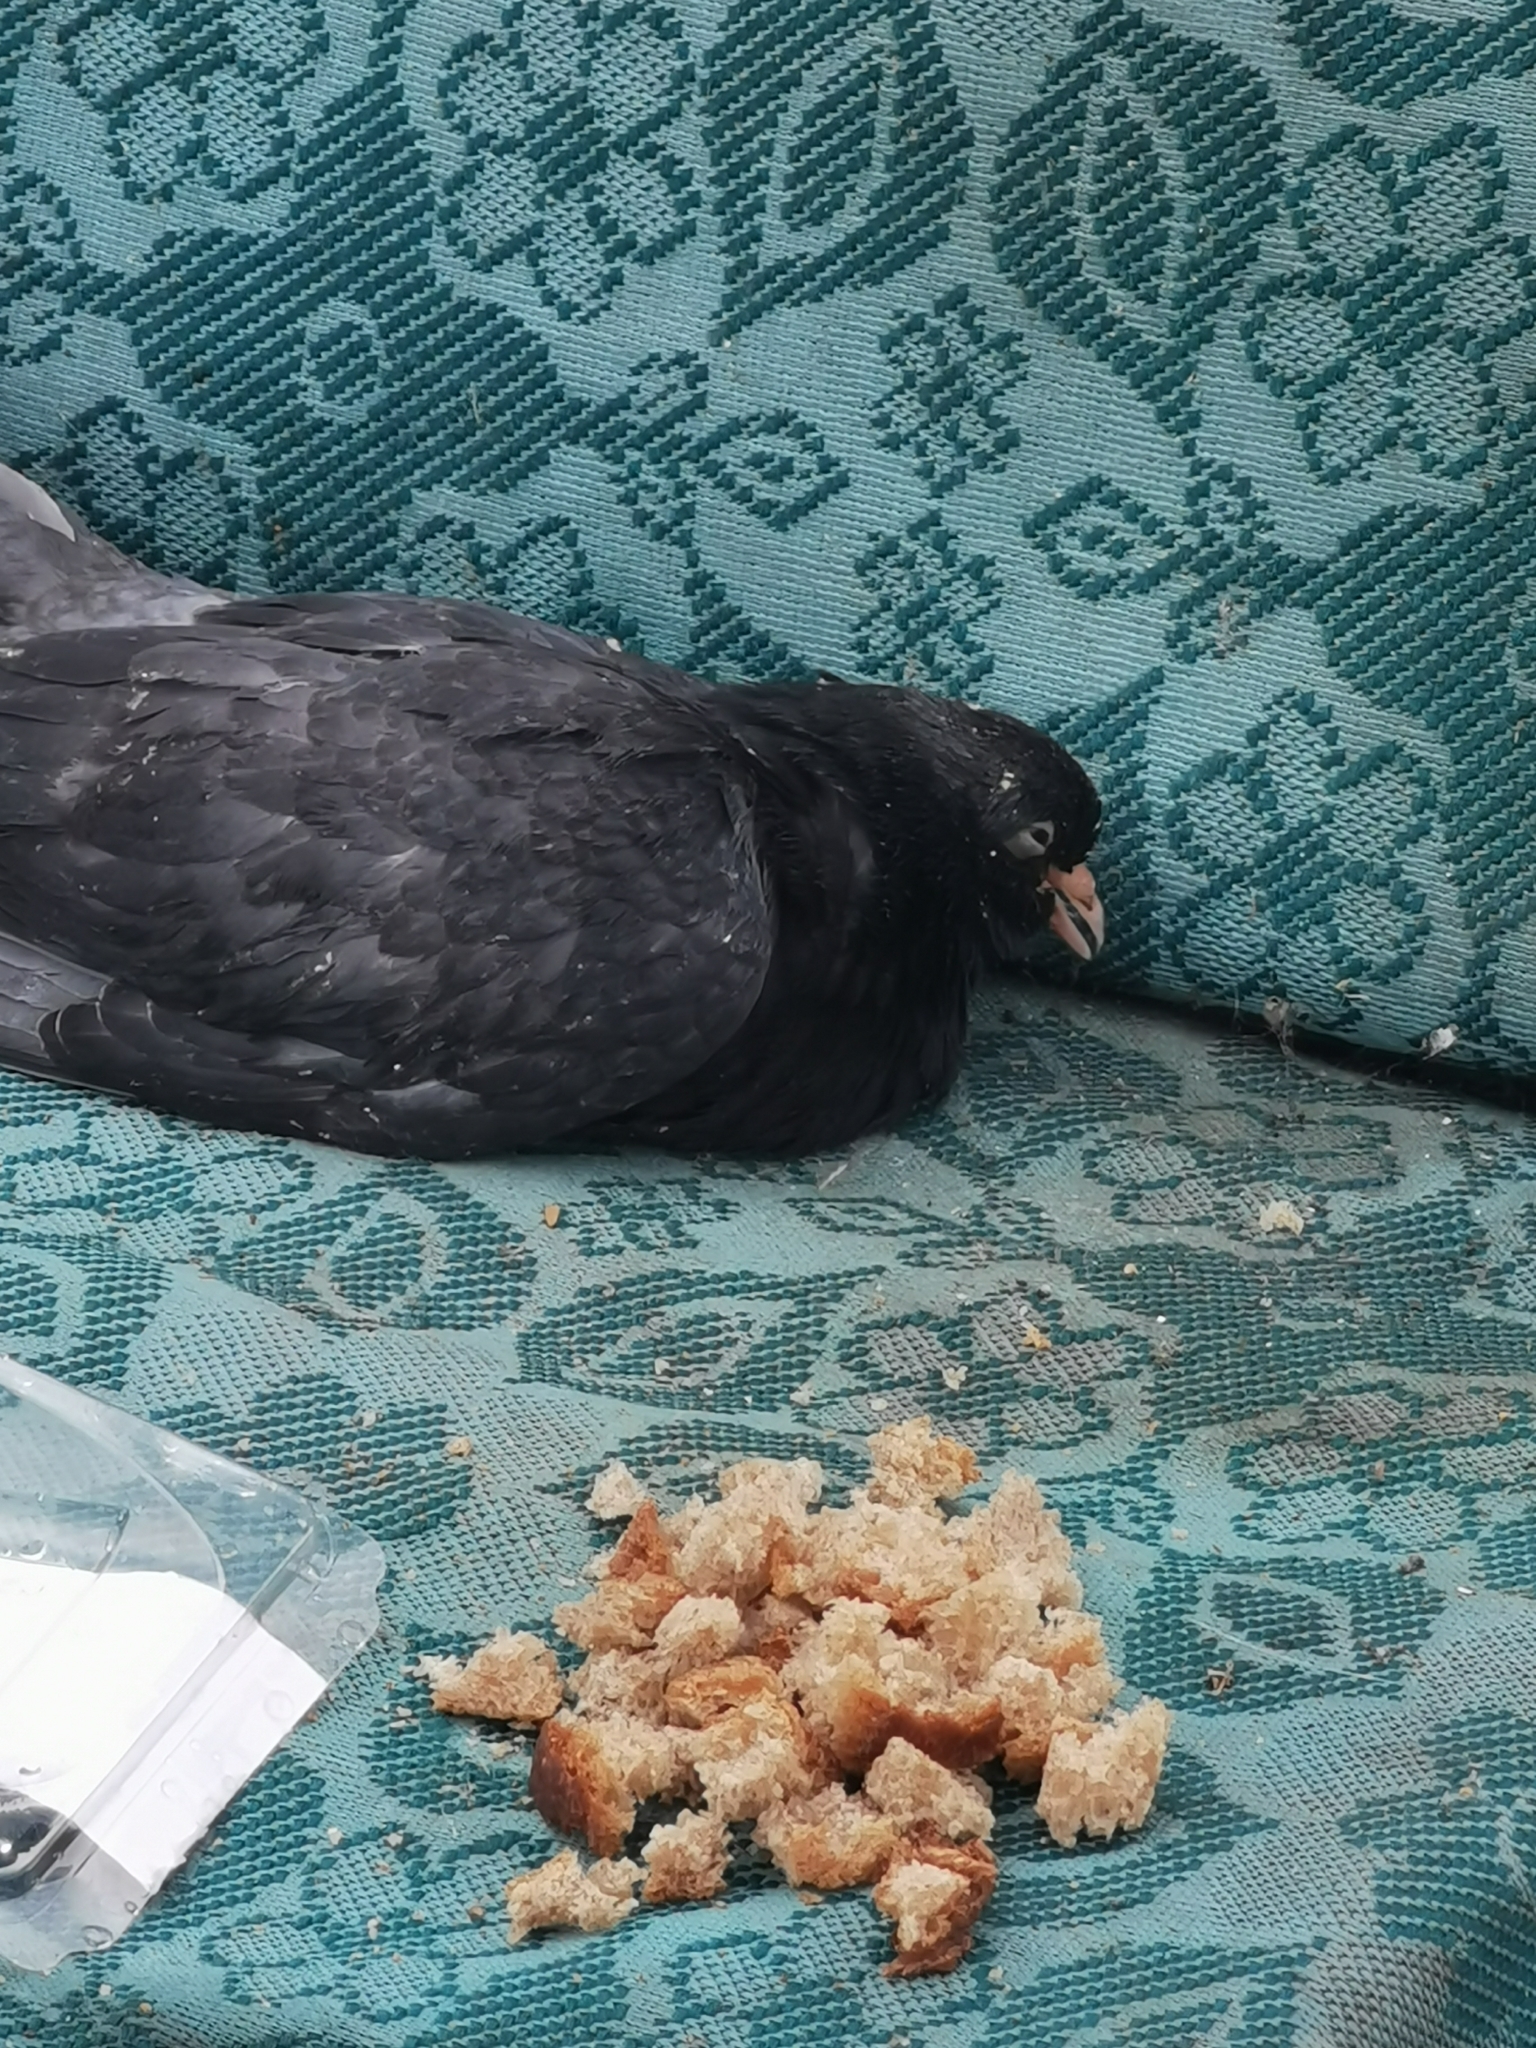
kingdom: Animalia
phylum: Chordata
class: Aves
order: Columbiformes
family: Columbidae
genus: Columba
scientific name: Columba livia
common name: Rock pigeon
